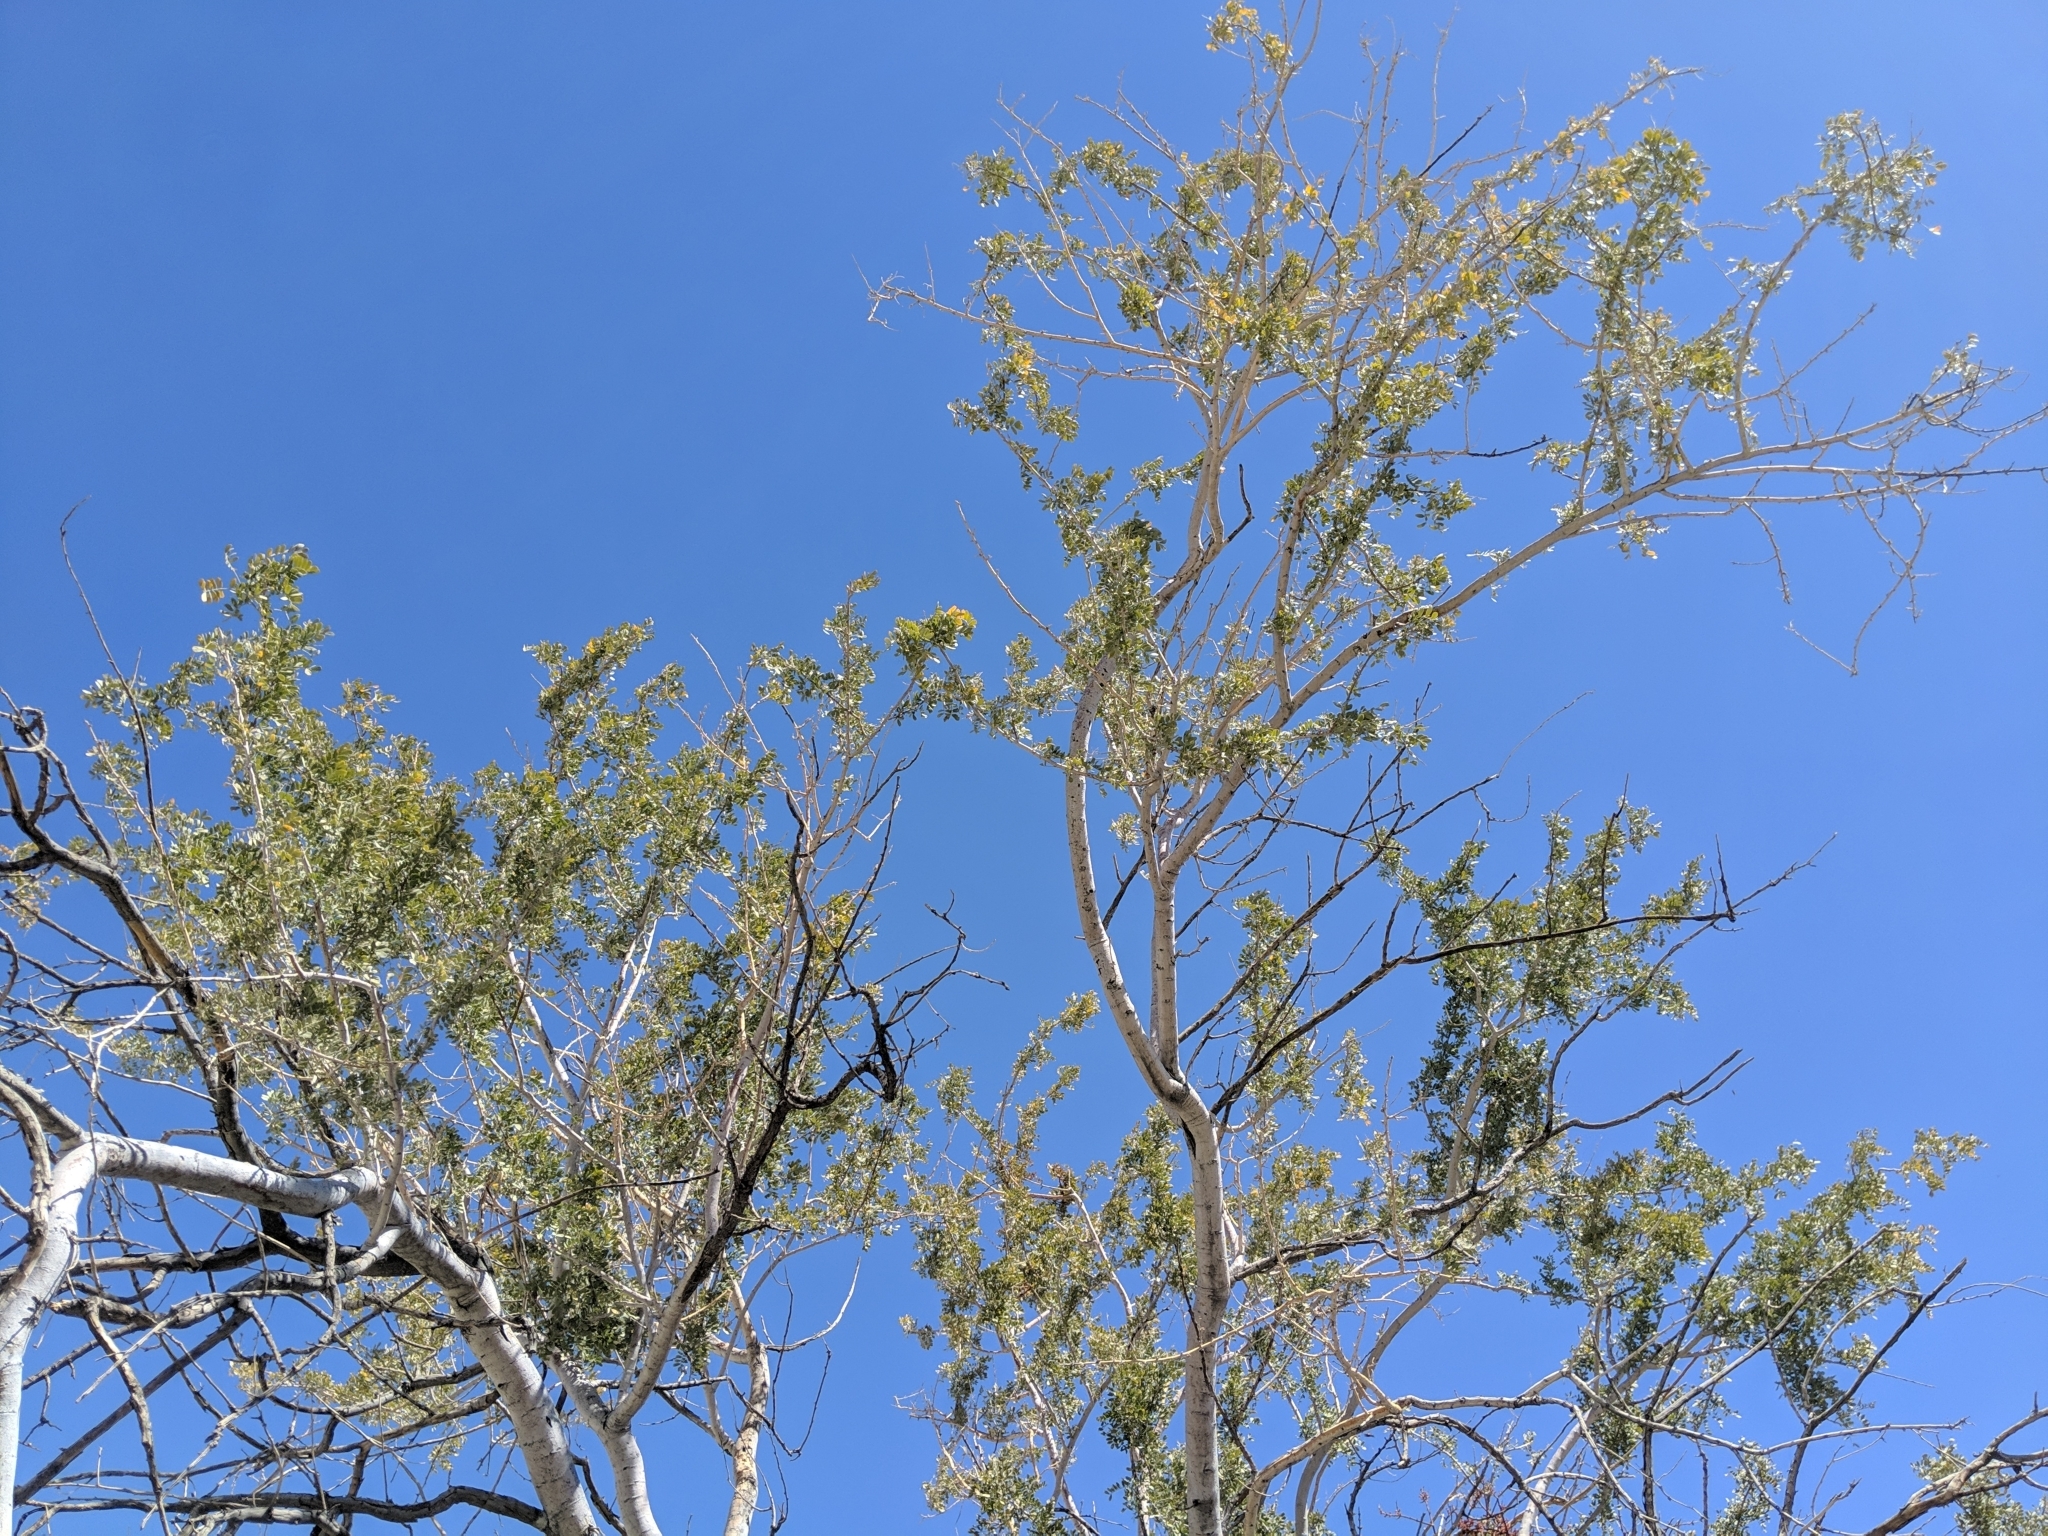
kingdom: Plantae
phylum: Tracheophyta
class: Magnoliopsida
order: Fabales
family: Fabaceae
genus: Olneya
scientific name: Olneya tesota
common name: Desert ironwood
